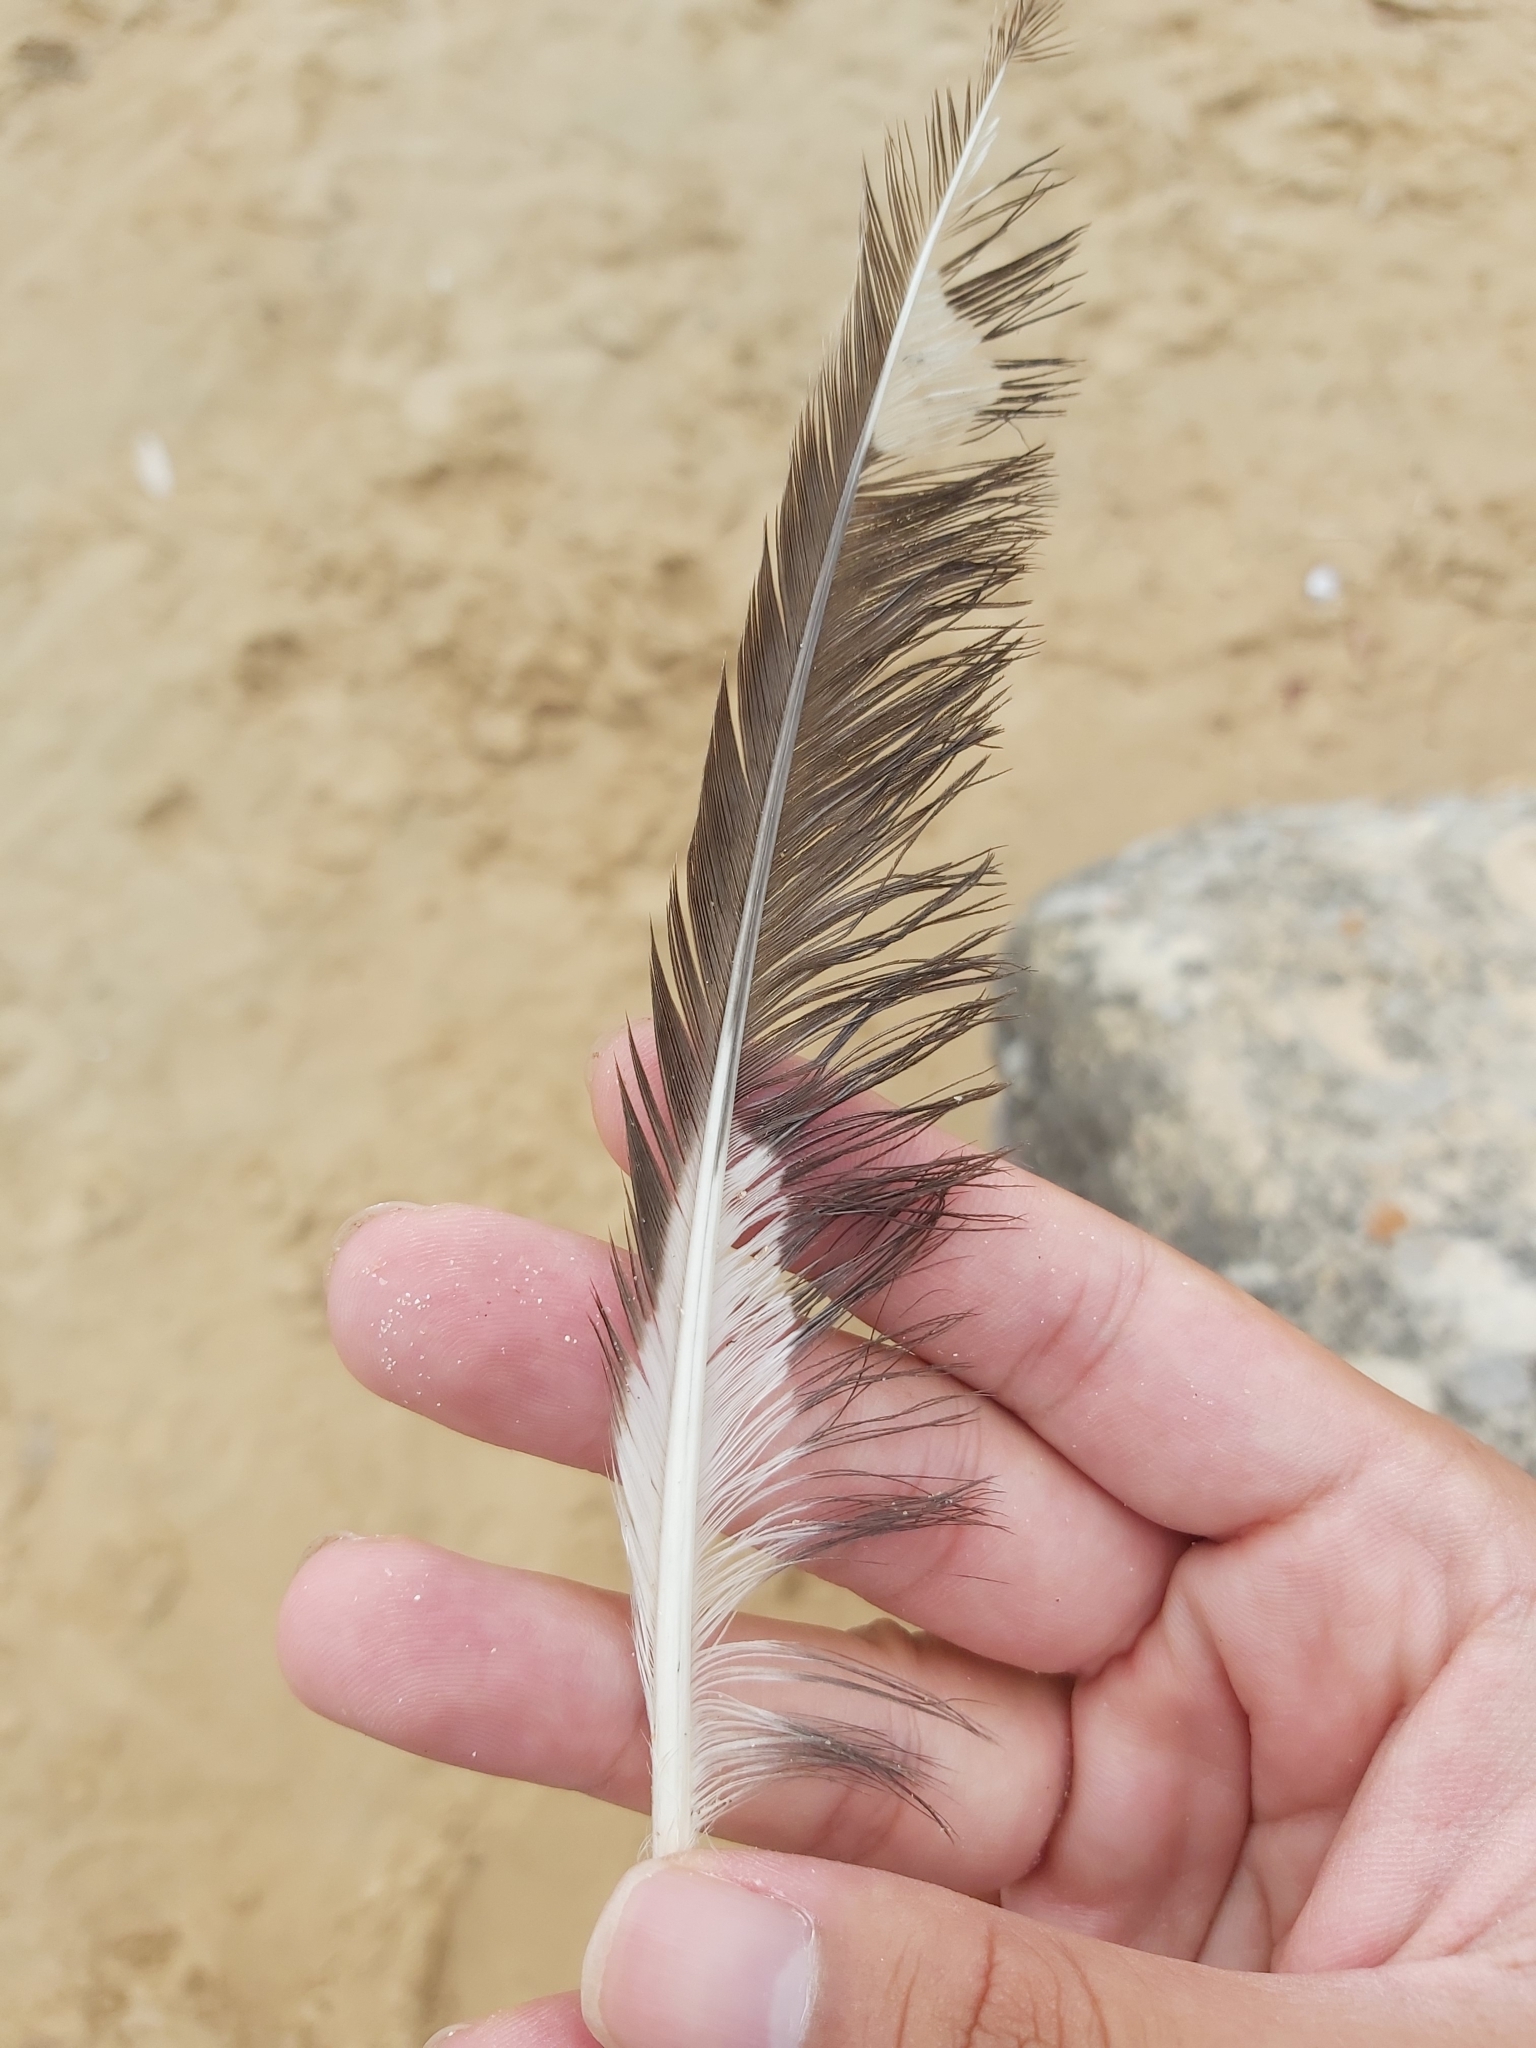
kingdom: Animalia
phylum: Chordata
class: Aves
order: Charadriiformes
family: Laridae
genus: Chroicocephalus
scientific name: Chroicocephalus novaehollandiae
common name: Silver gull
